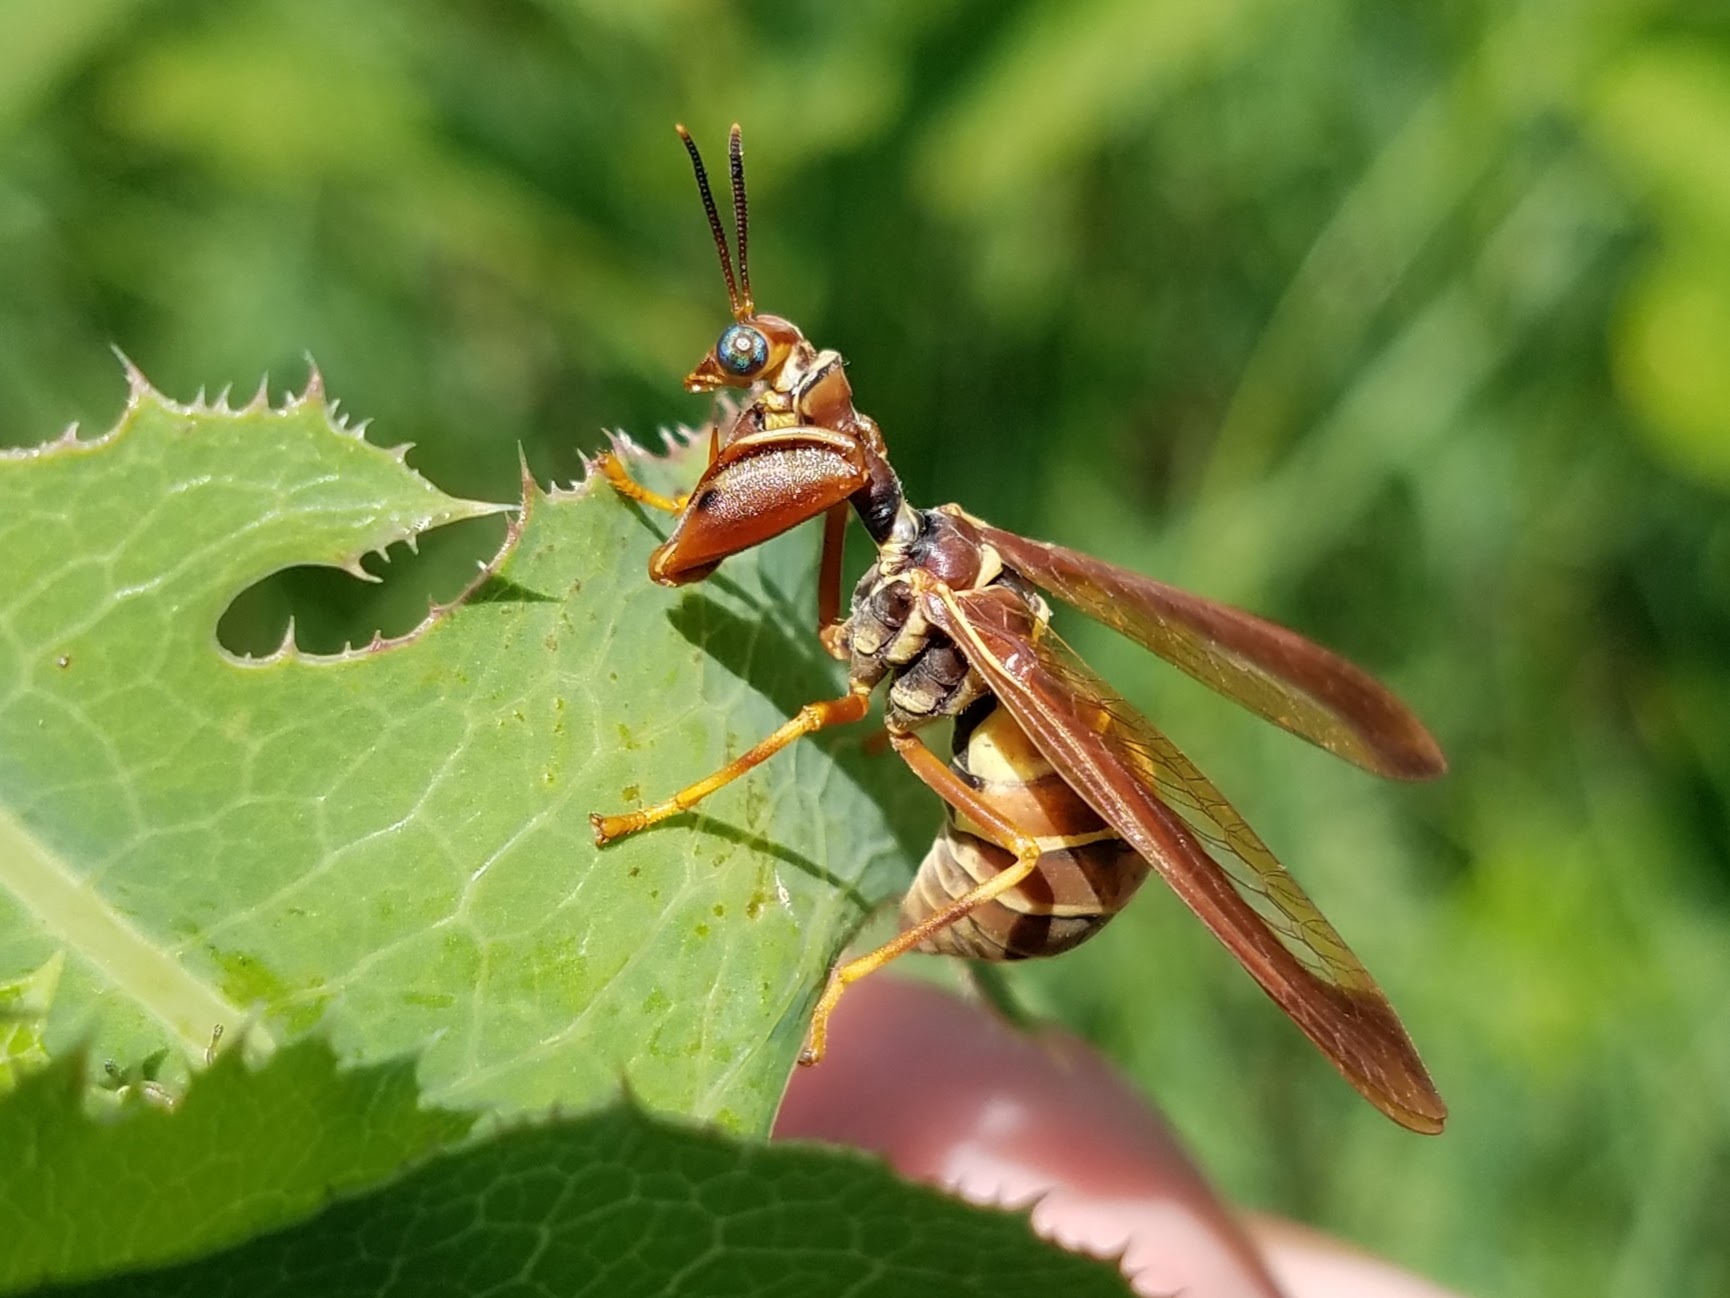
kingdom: Animalia
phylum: Arthropoda
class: Insecta
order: Neuroptera
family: Mantispidae
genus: Climaciella
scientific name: Climaciella brunnea
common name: Brown wasp mantidfly
